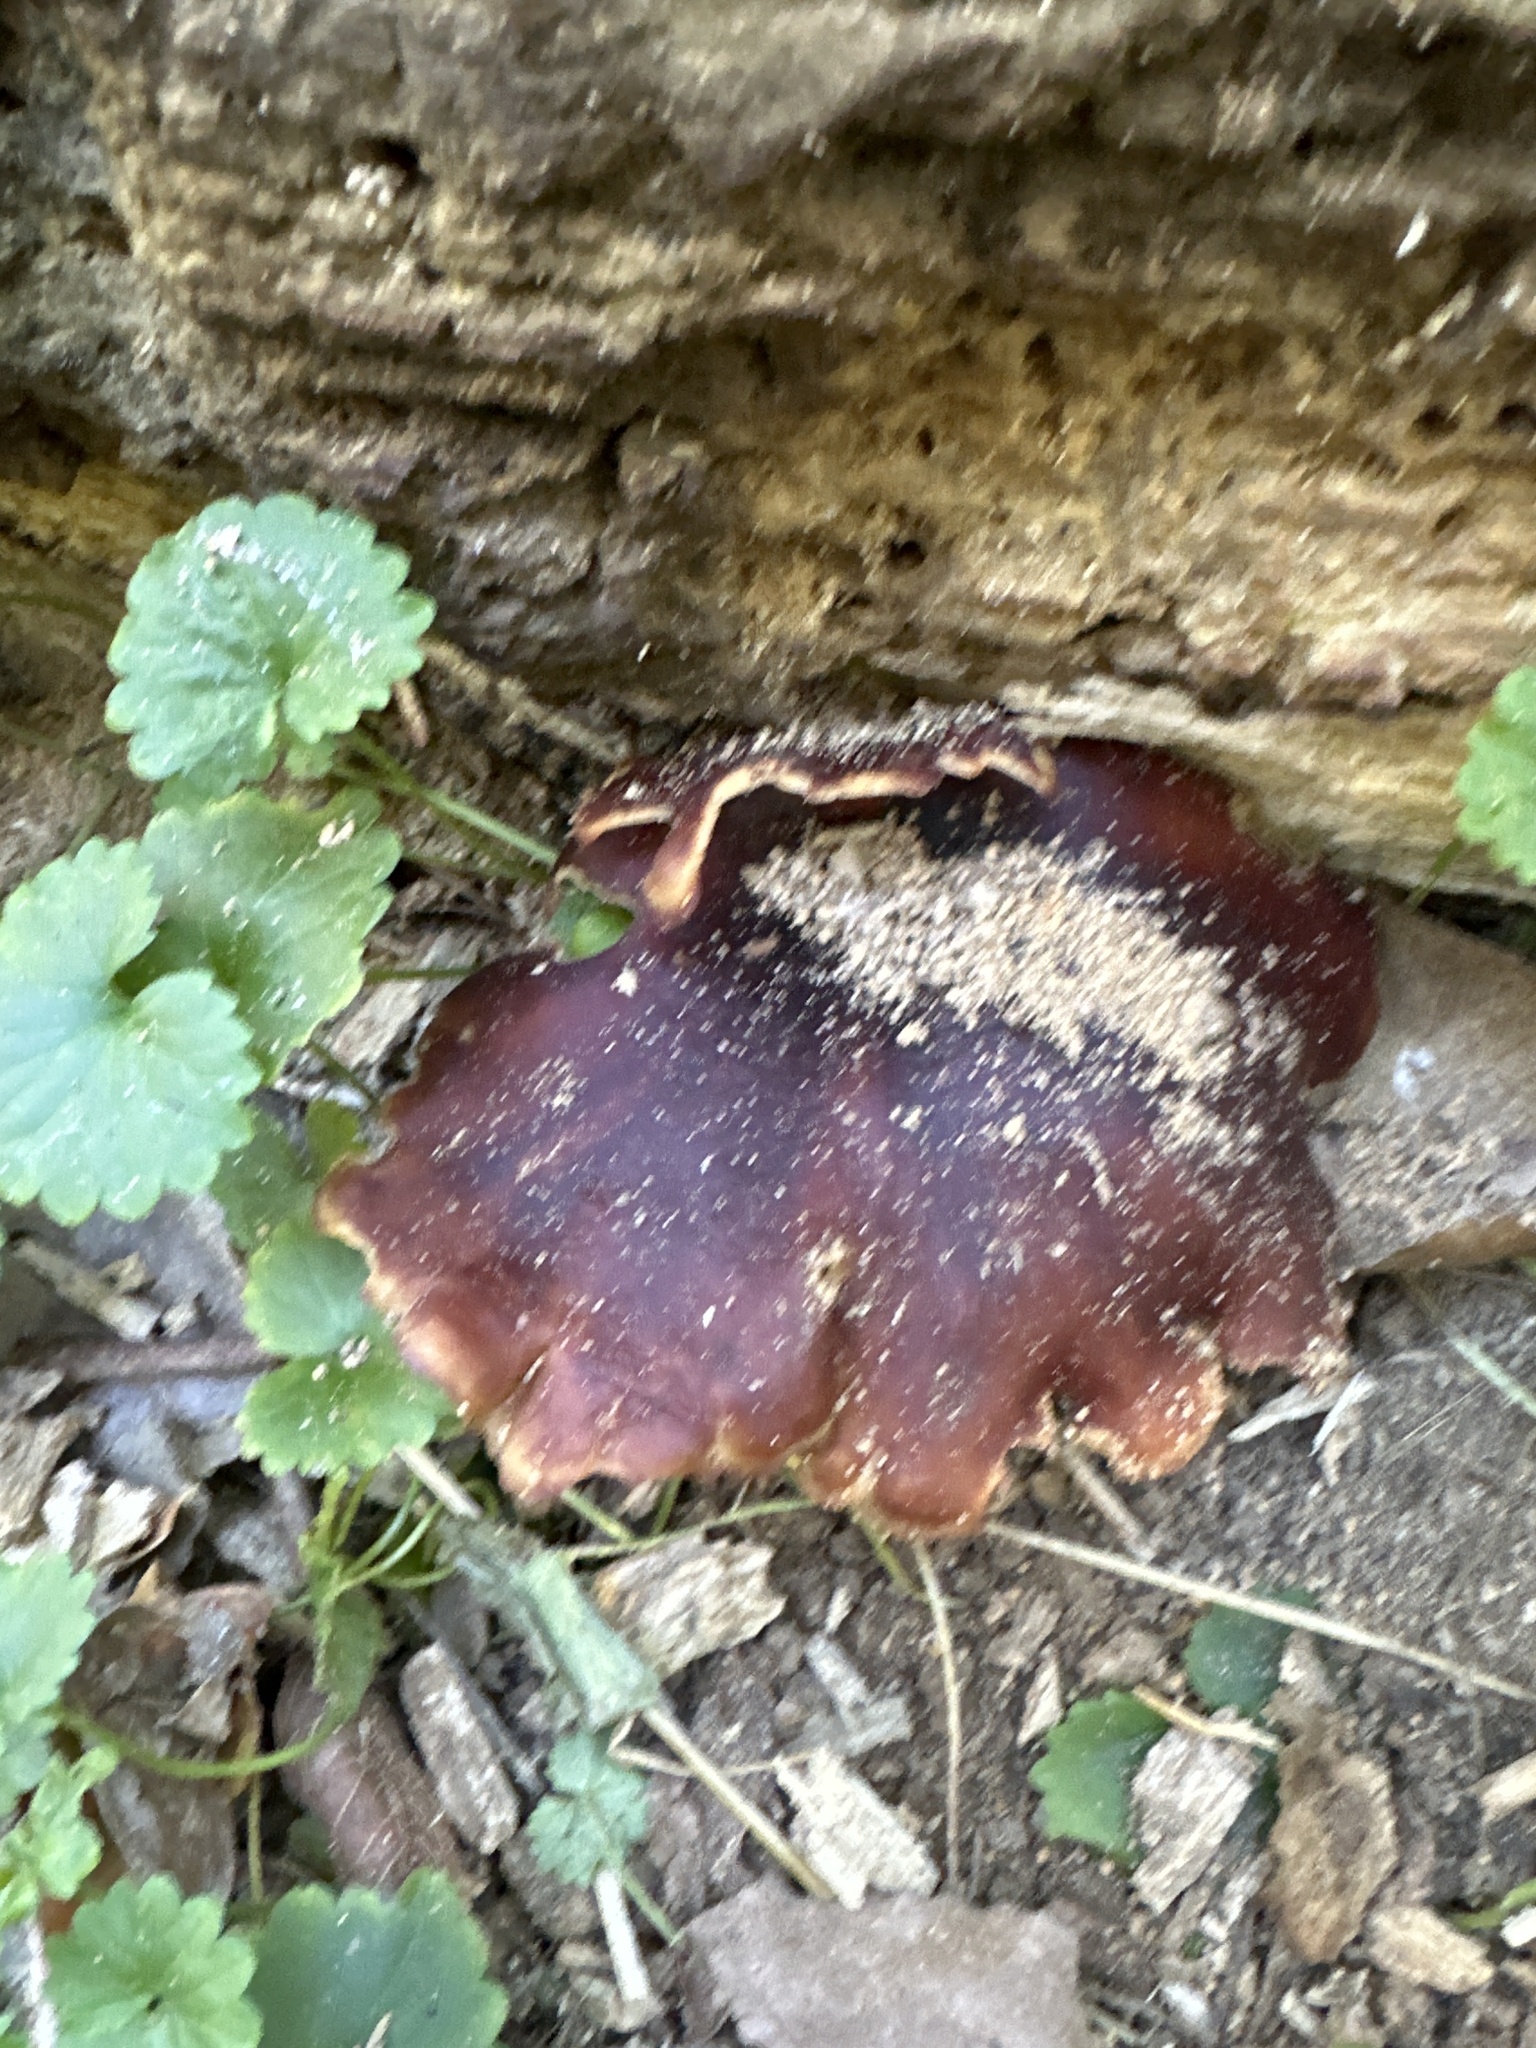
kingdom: Fungi
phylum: Basidiomycota
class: Agaricomycetes
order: Polyporales
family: Polyporaceae
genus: Picipes
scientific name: Picipes badius
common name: Bay polypore
